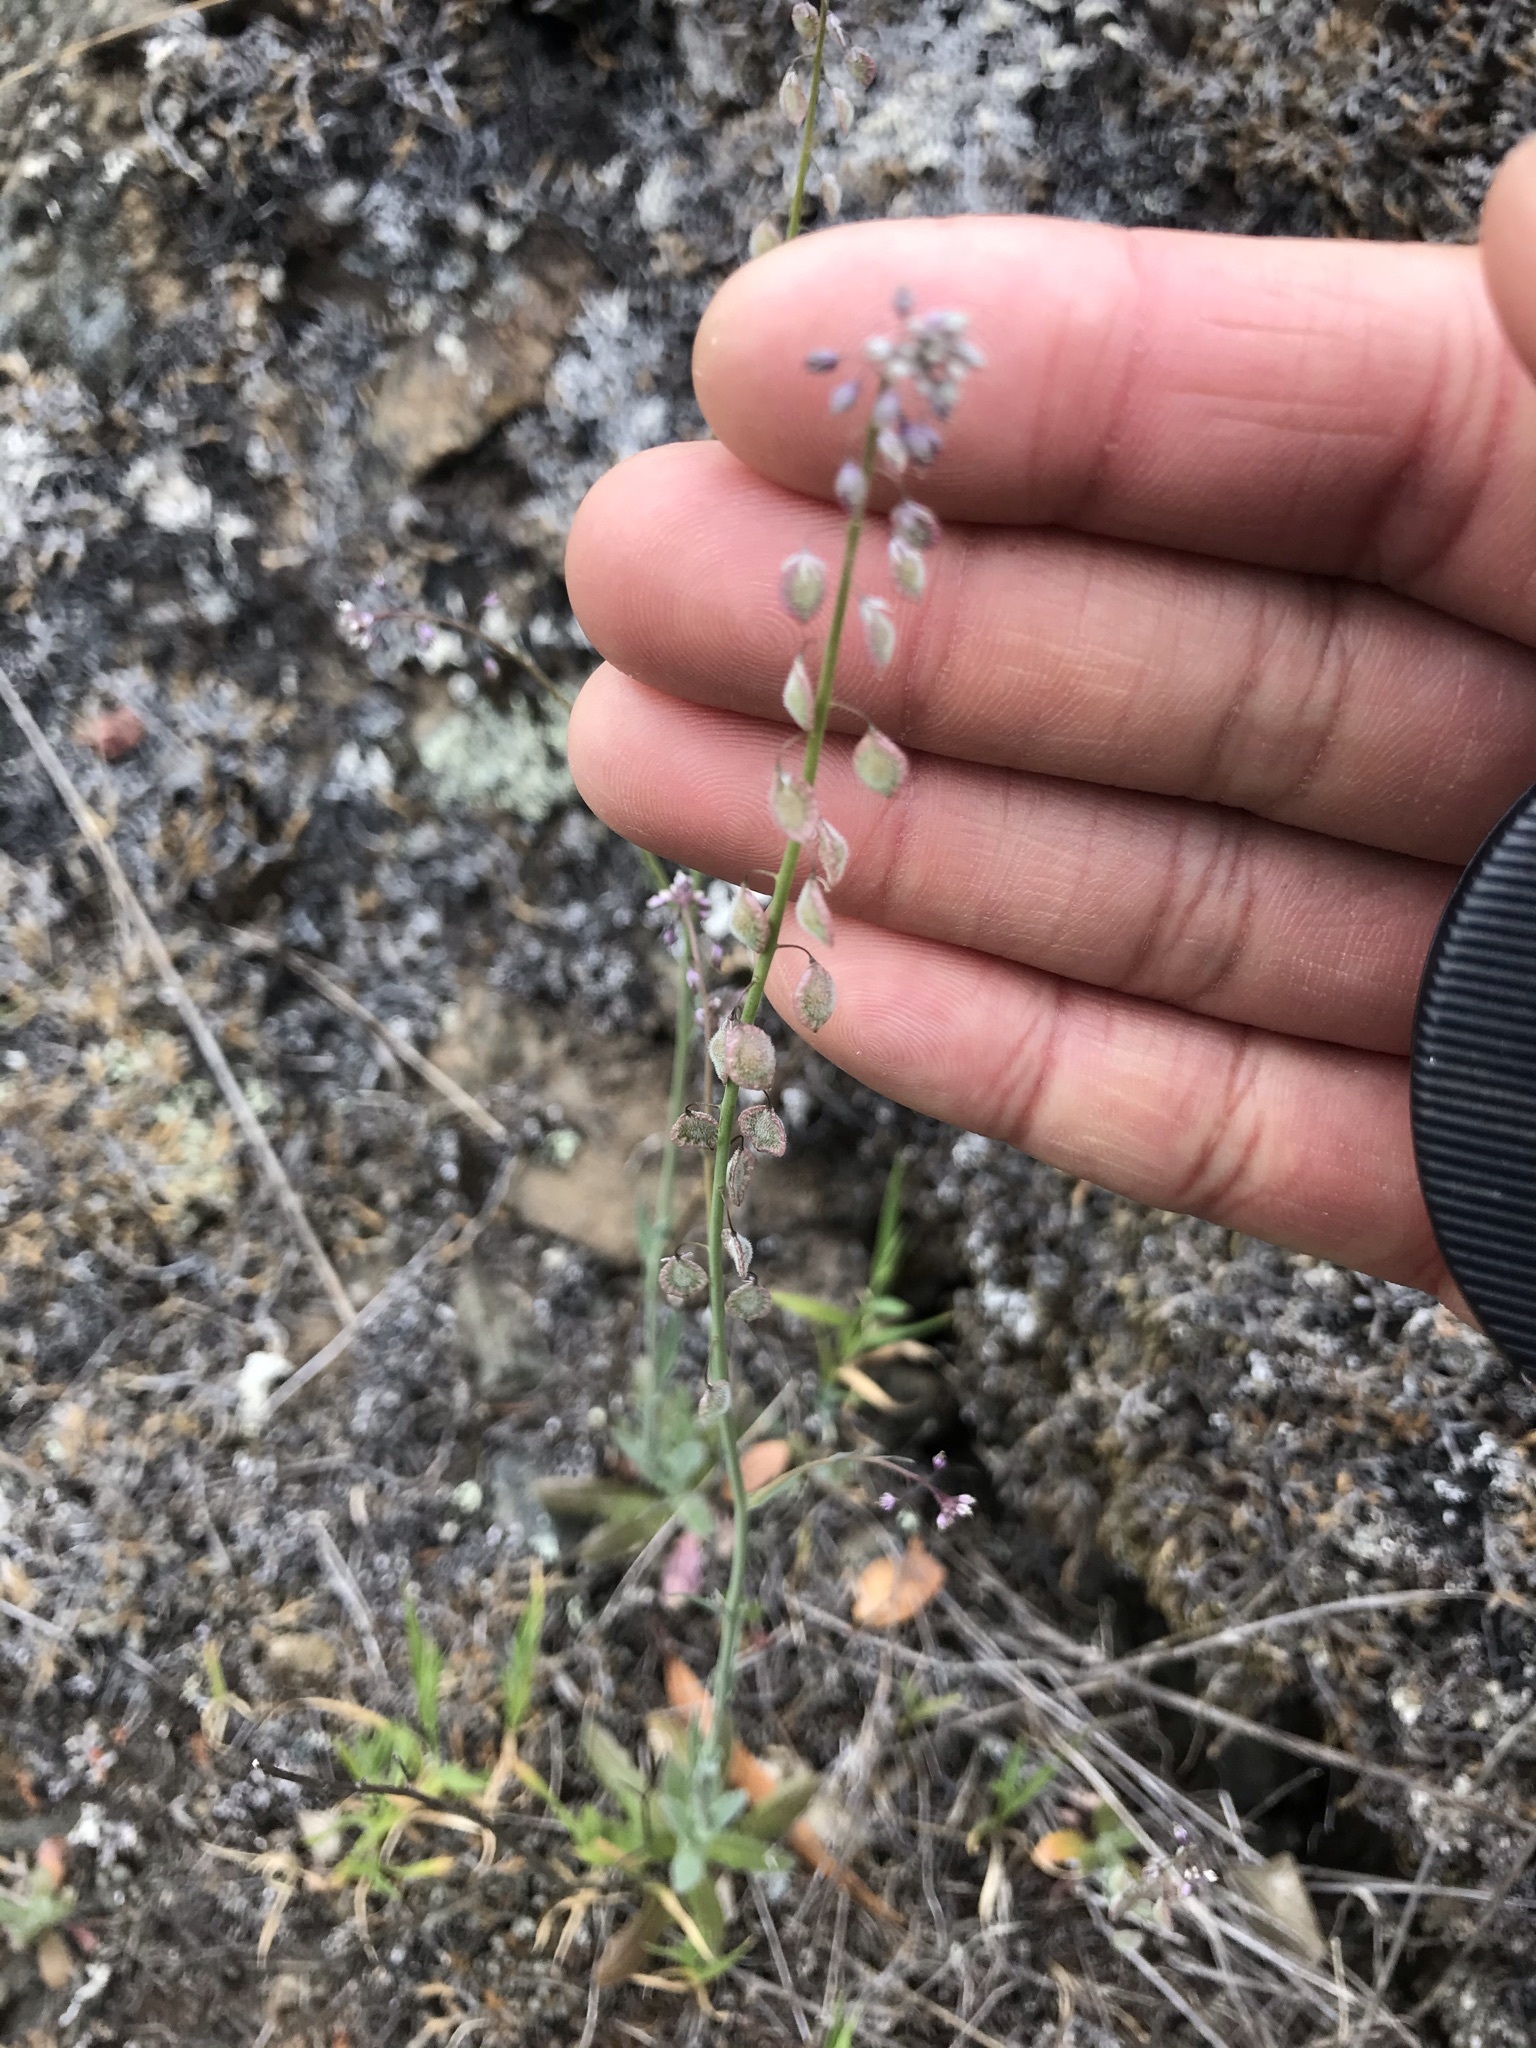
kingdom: Plantae
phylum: Tracheophyta
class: Magnoliopsida
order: Brassicales
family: Brassicaceae
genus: Thysanocarpus
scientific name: Thysanocarpus curvipes
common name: Sand fringepod
